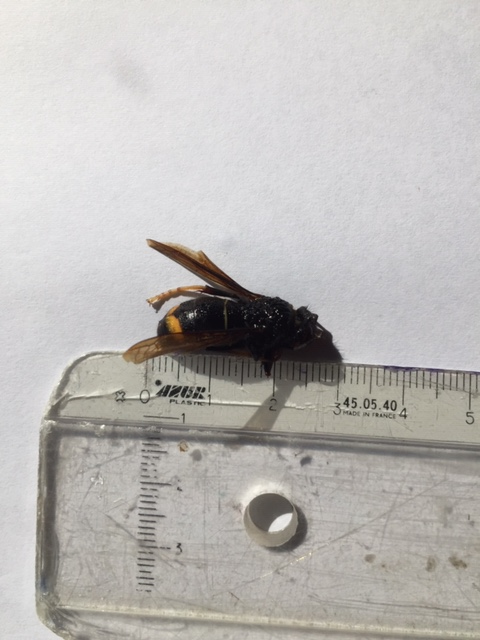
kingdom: Animalia
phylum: Arthropoda
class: Insecta
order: Hymenoptera
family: Vespidae
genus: Vespa
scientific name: Vespa velutina
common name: Asian hornet
